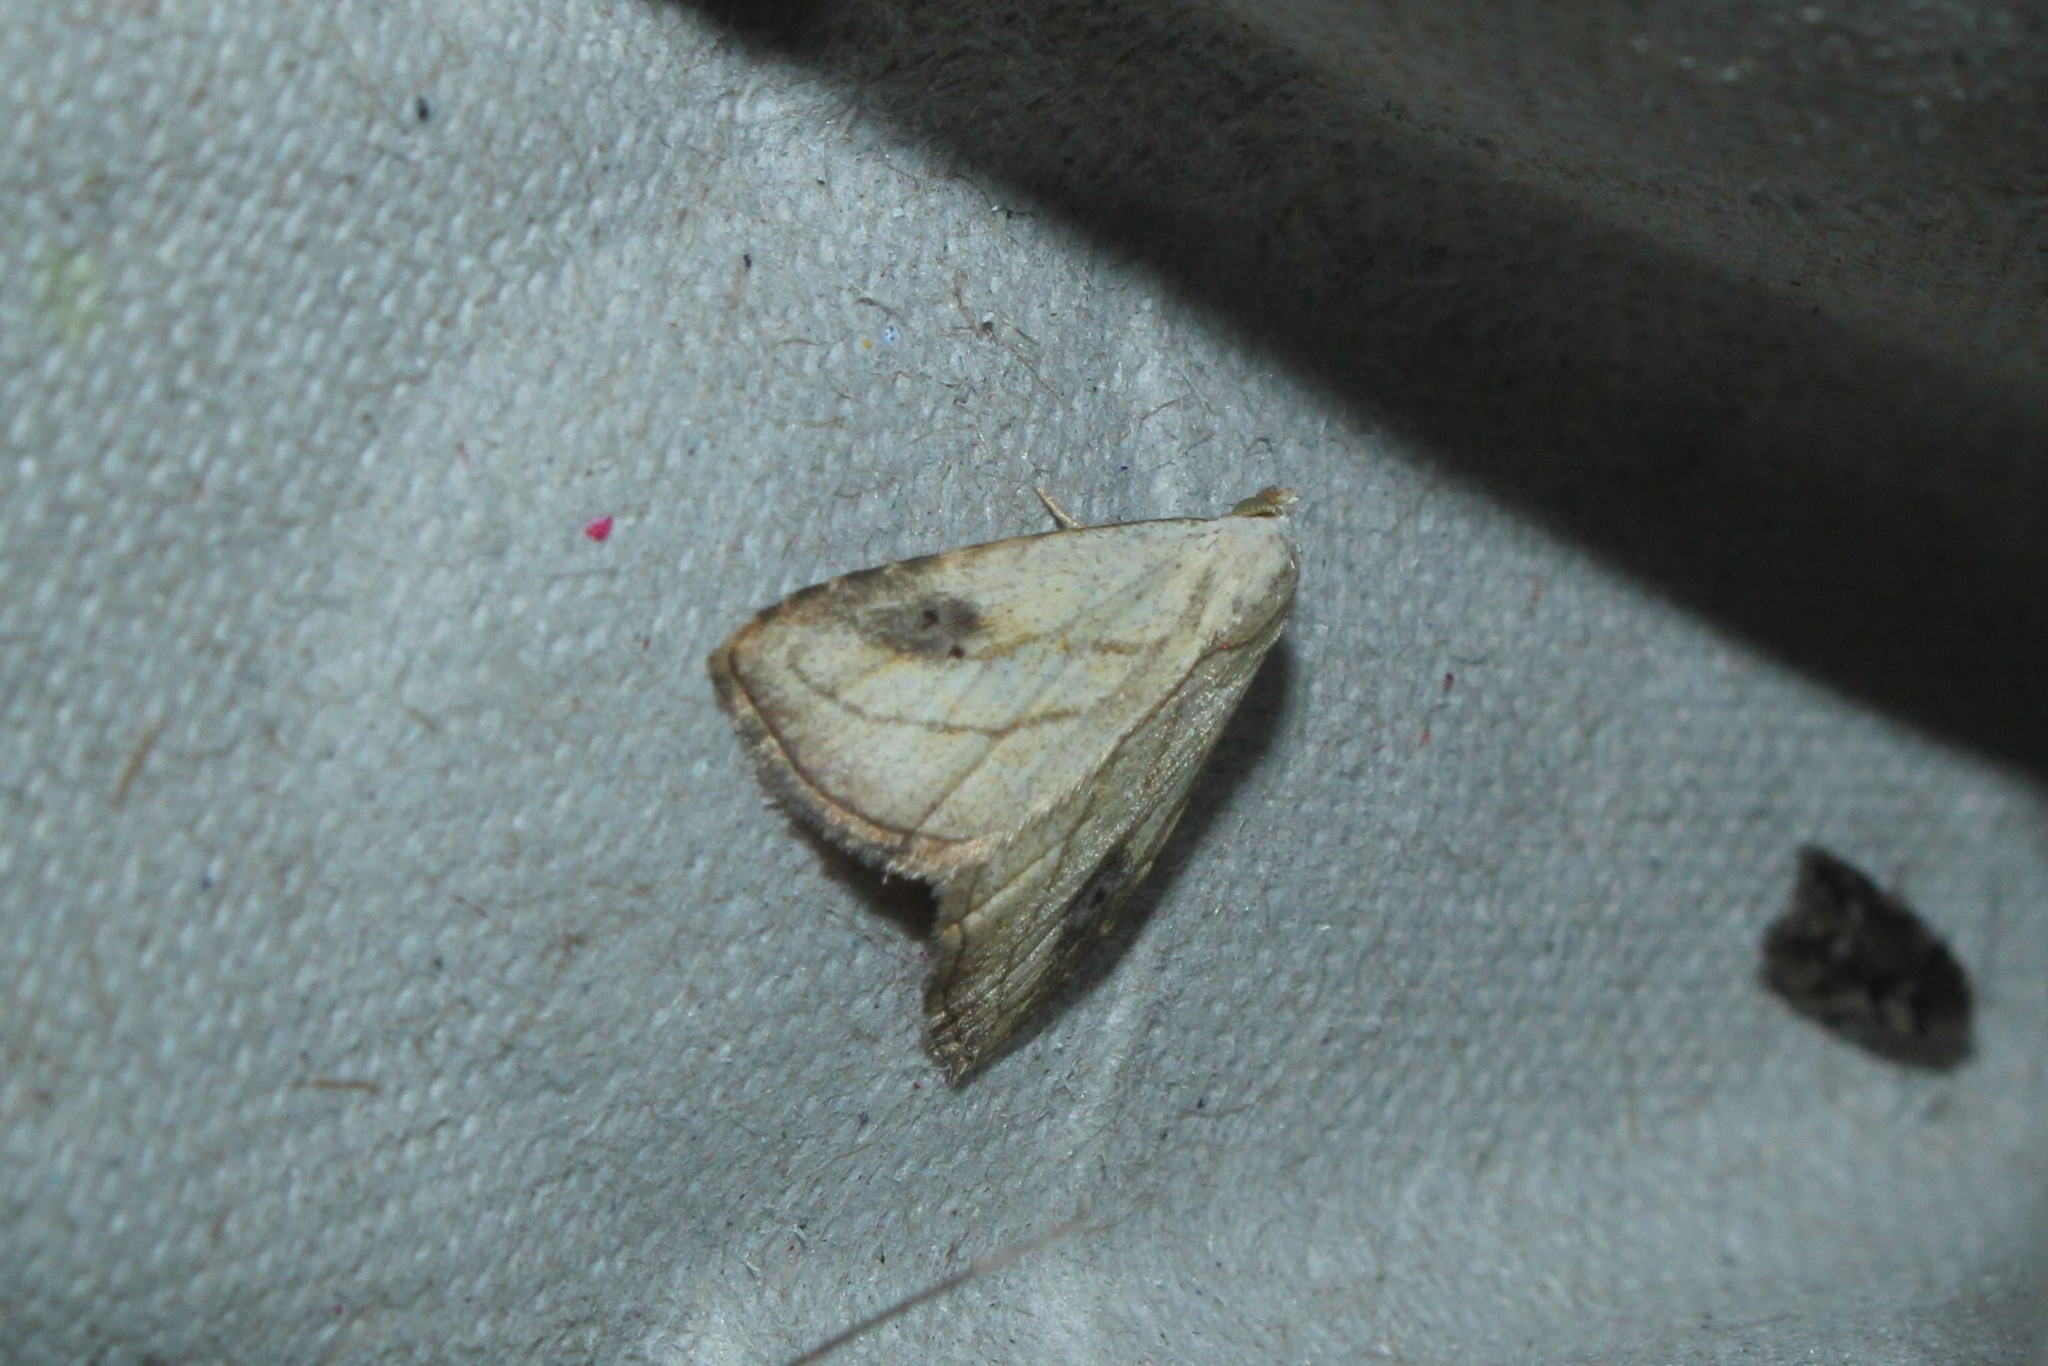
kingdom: Animalia
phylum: Arthropoda
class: Insecta
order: Lepidoptera
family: Erebidae
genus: Rivula
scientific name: Rivula propinqualis
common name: Spotted grass moth
